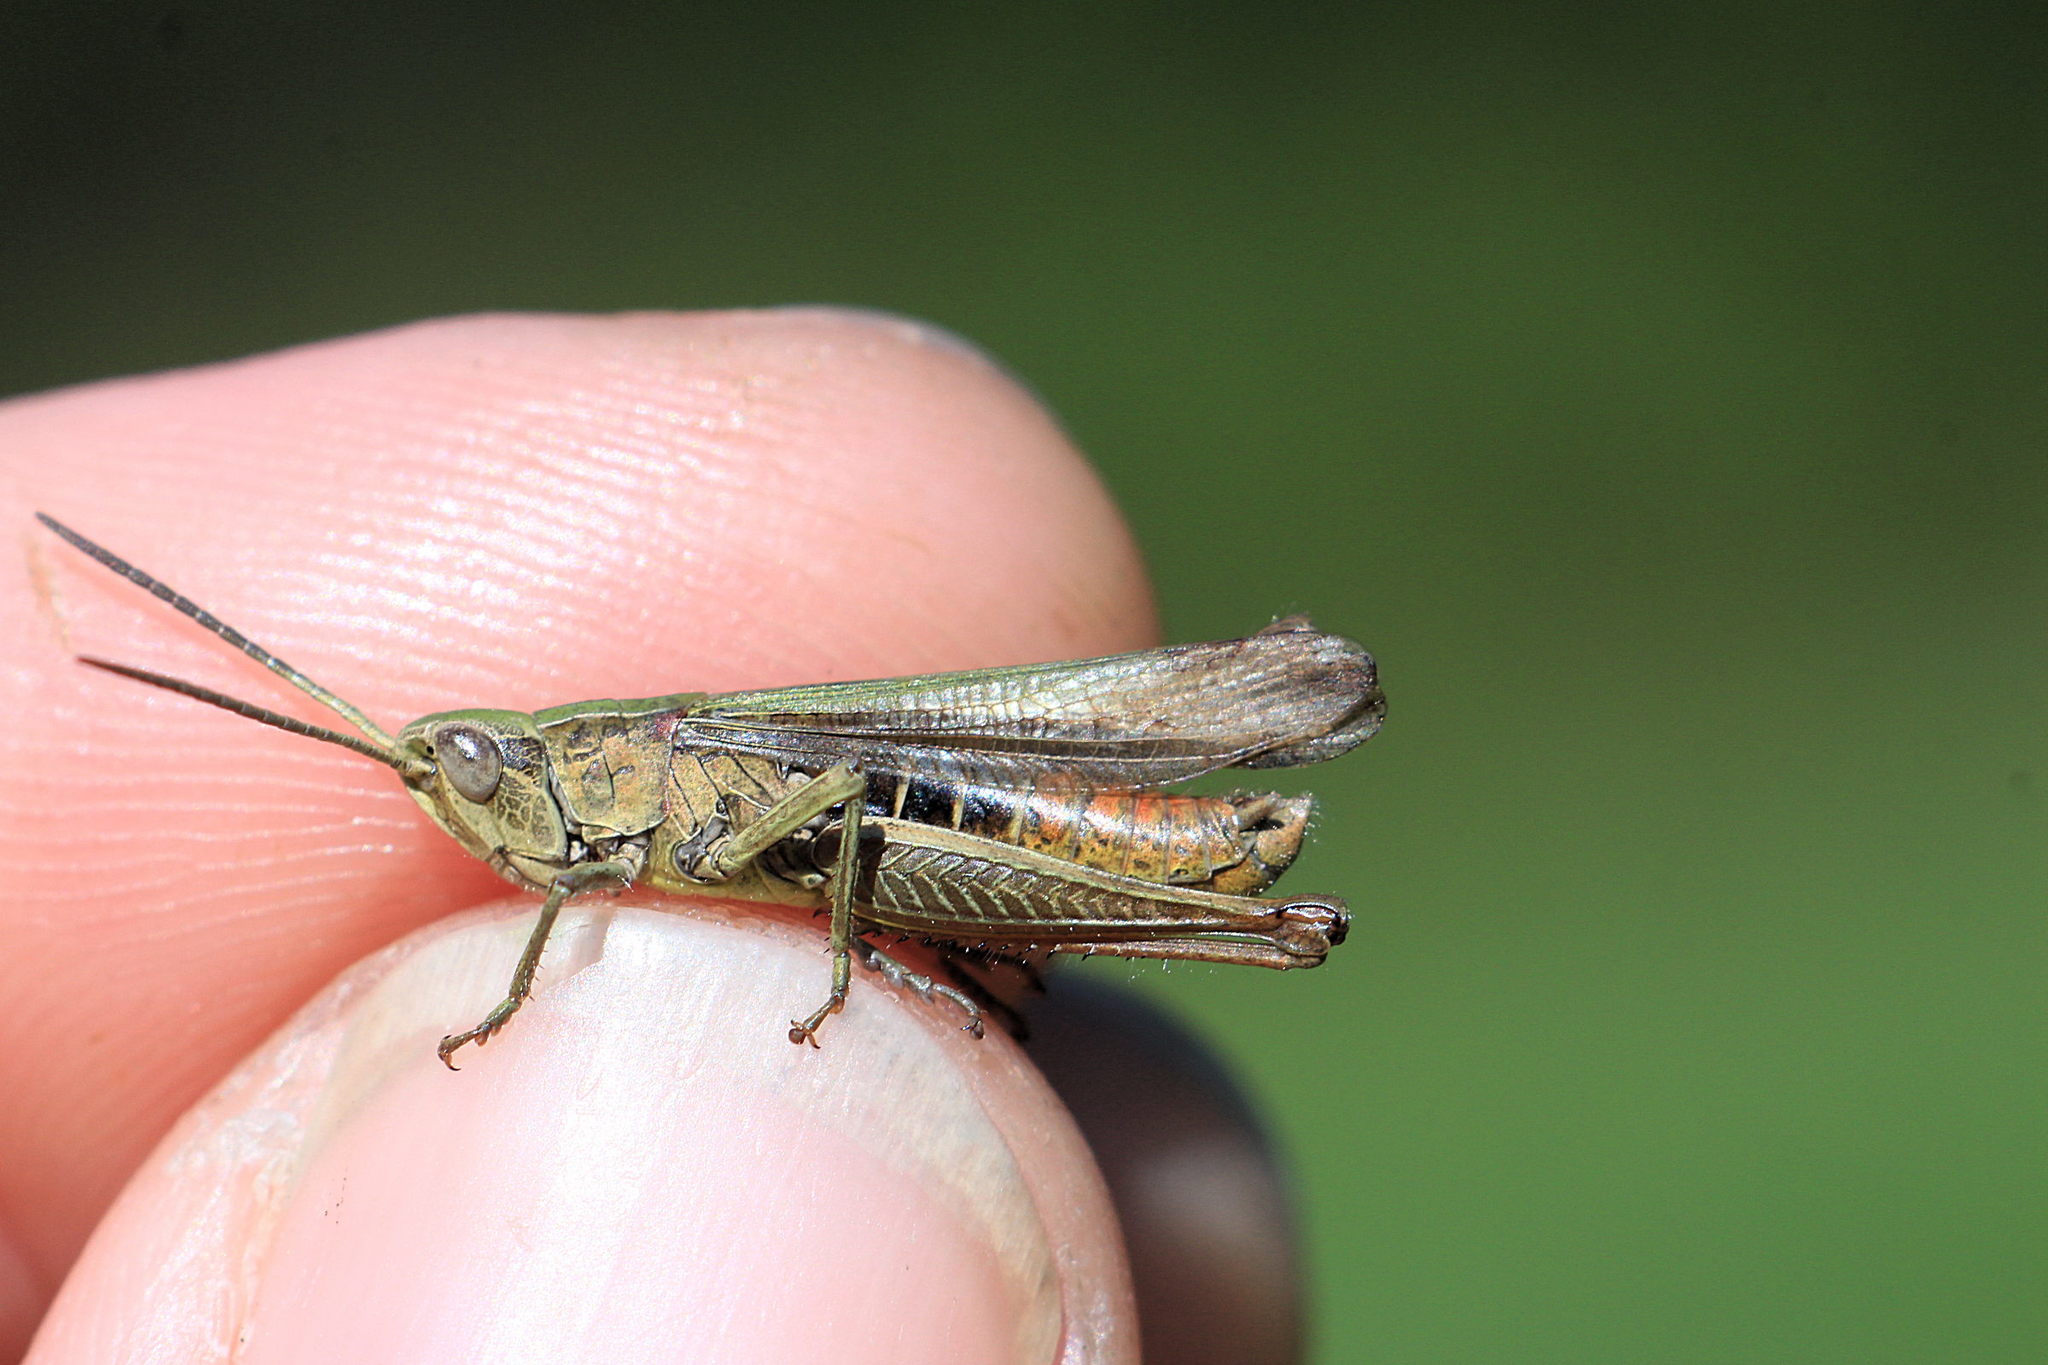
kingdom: Animalia
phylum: Arthropoda
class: Insecta
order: Orthoptera
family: Acrididae
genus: Chorthippus
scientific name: Chorthippus dorsatus
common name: Steppe grasshopper
